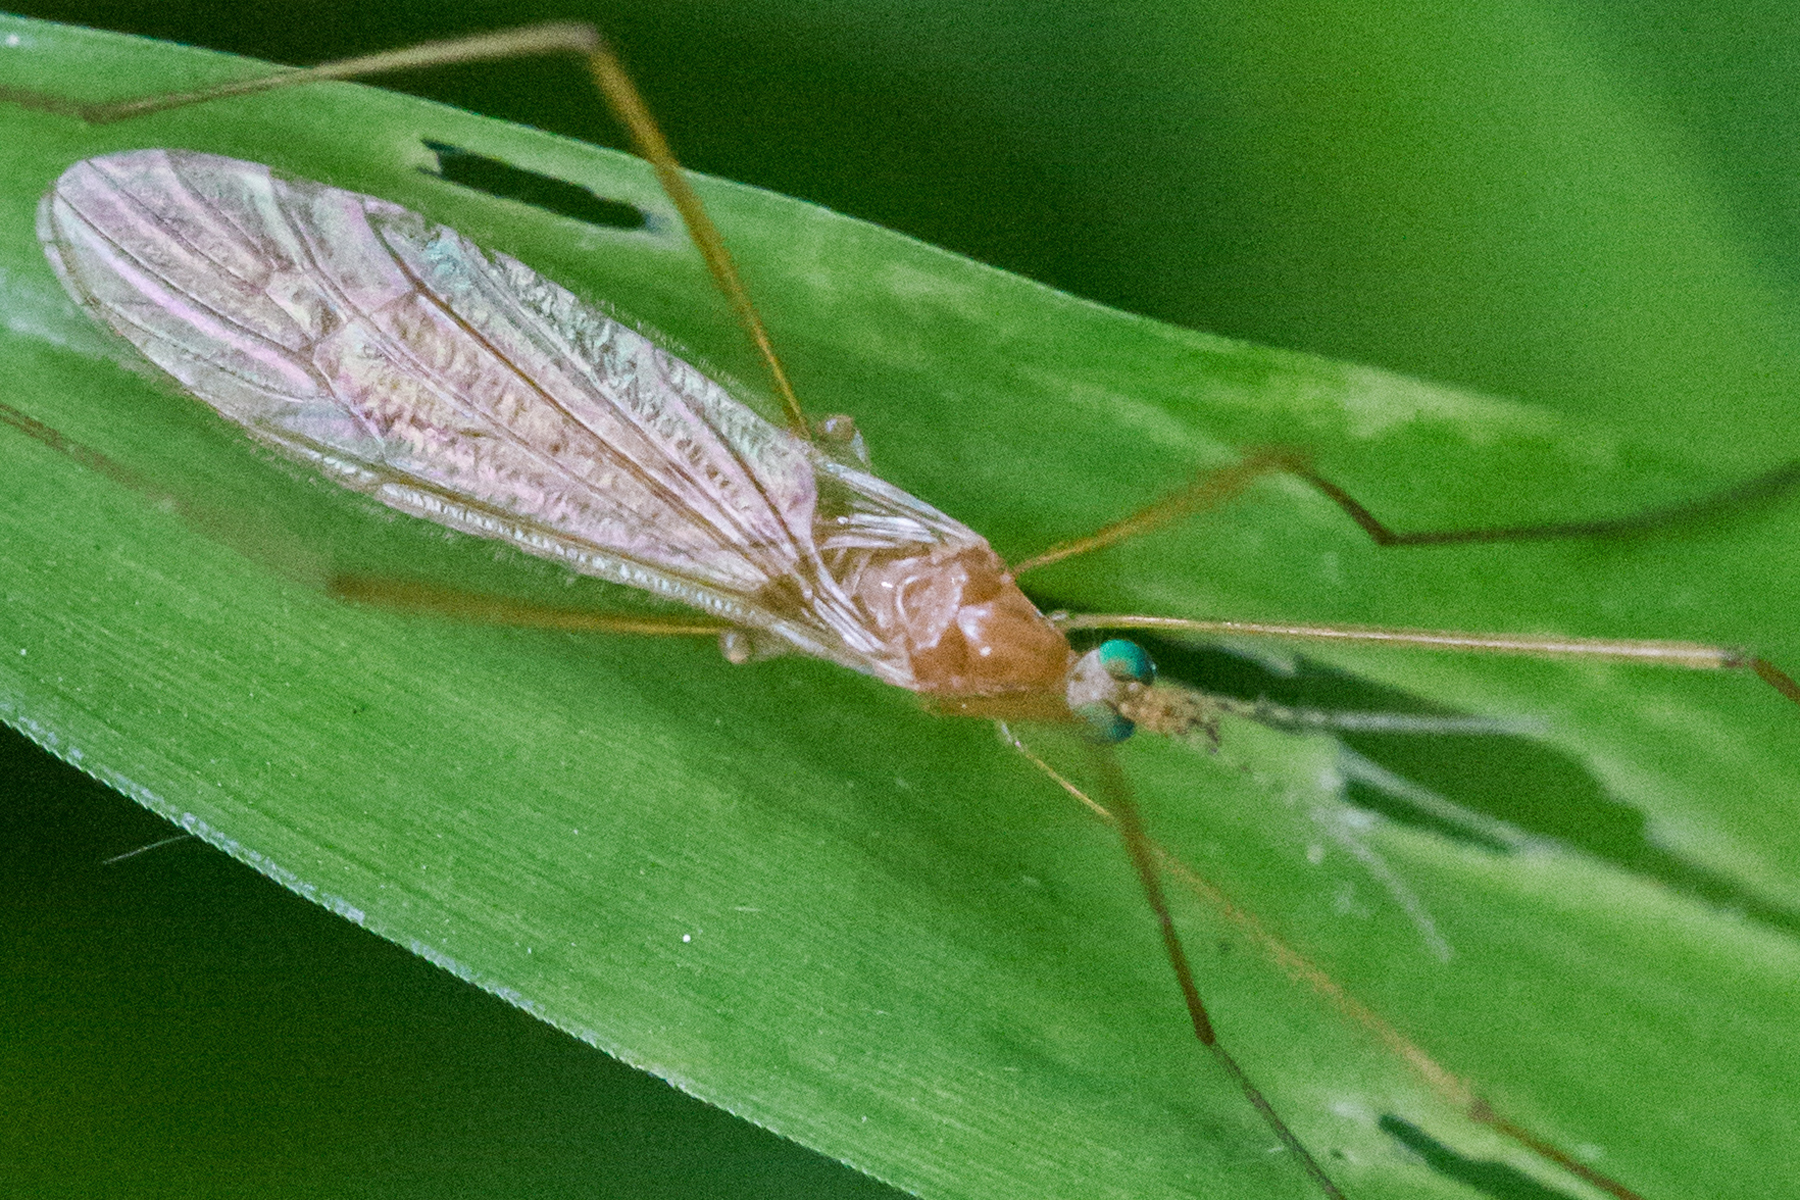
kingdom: Animalia
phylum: Arthropoda
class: Insecta
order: Diptera
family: Limoniidae
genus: Atarba
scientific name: Atarba picticornis
